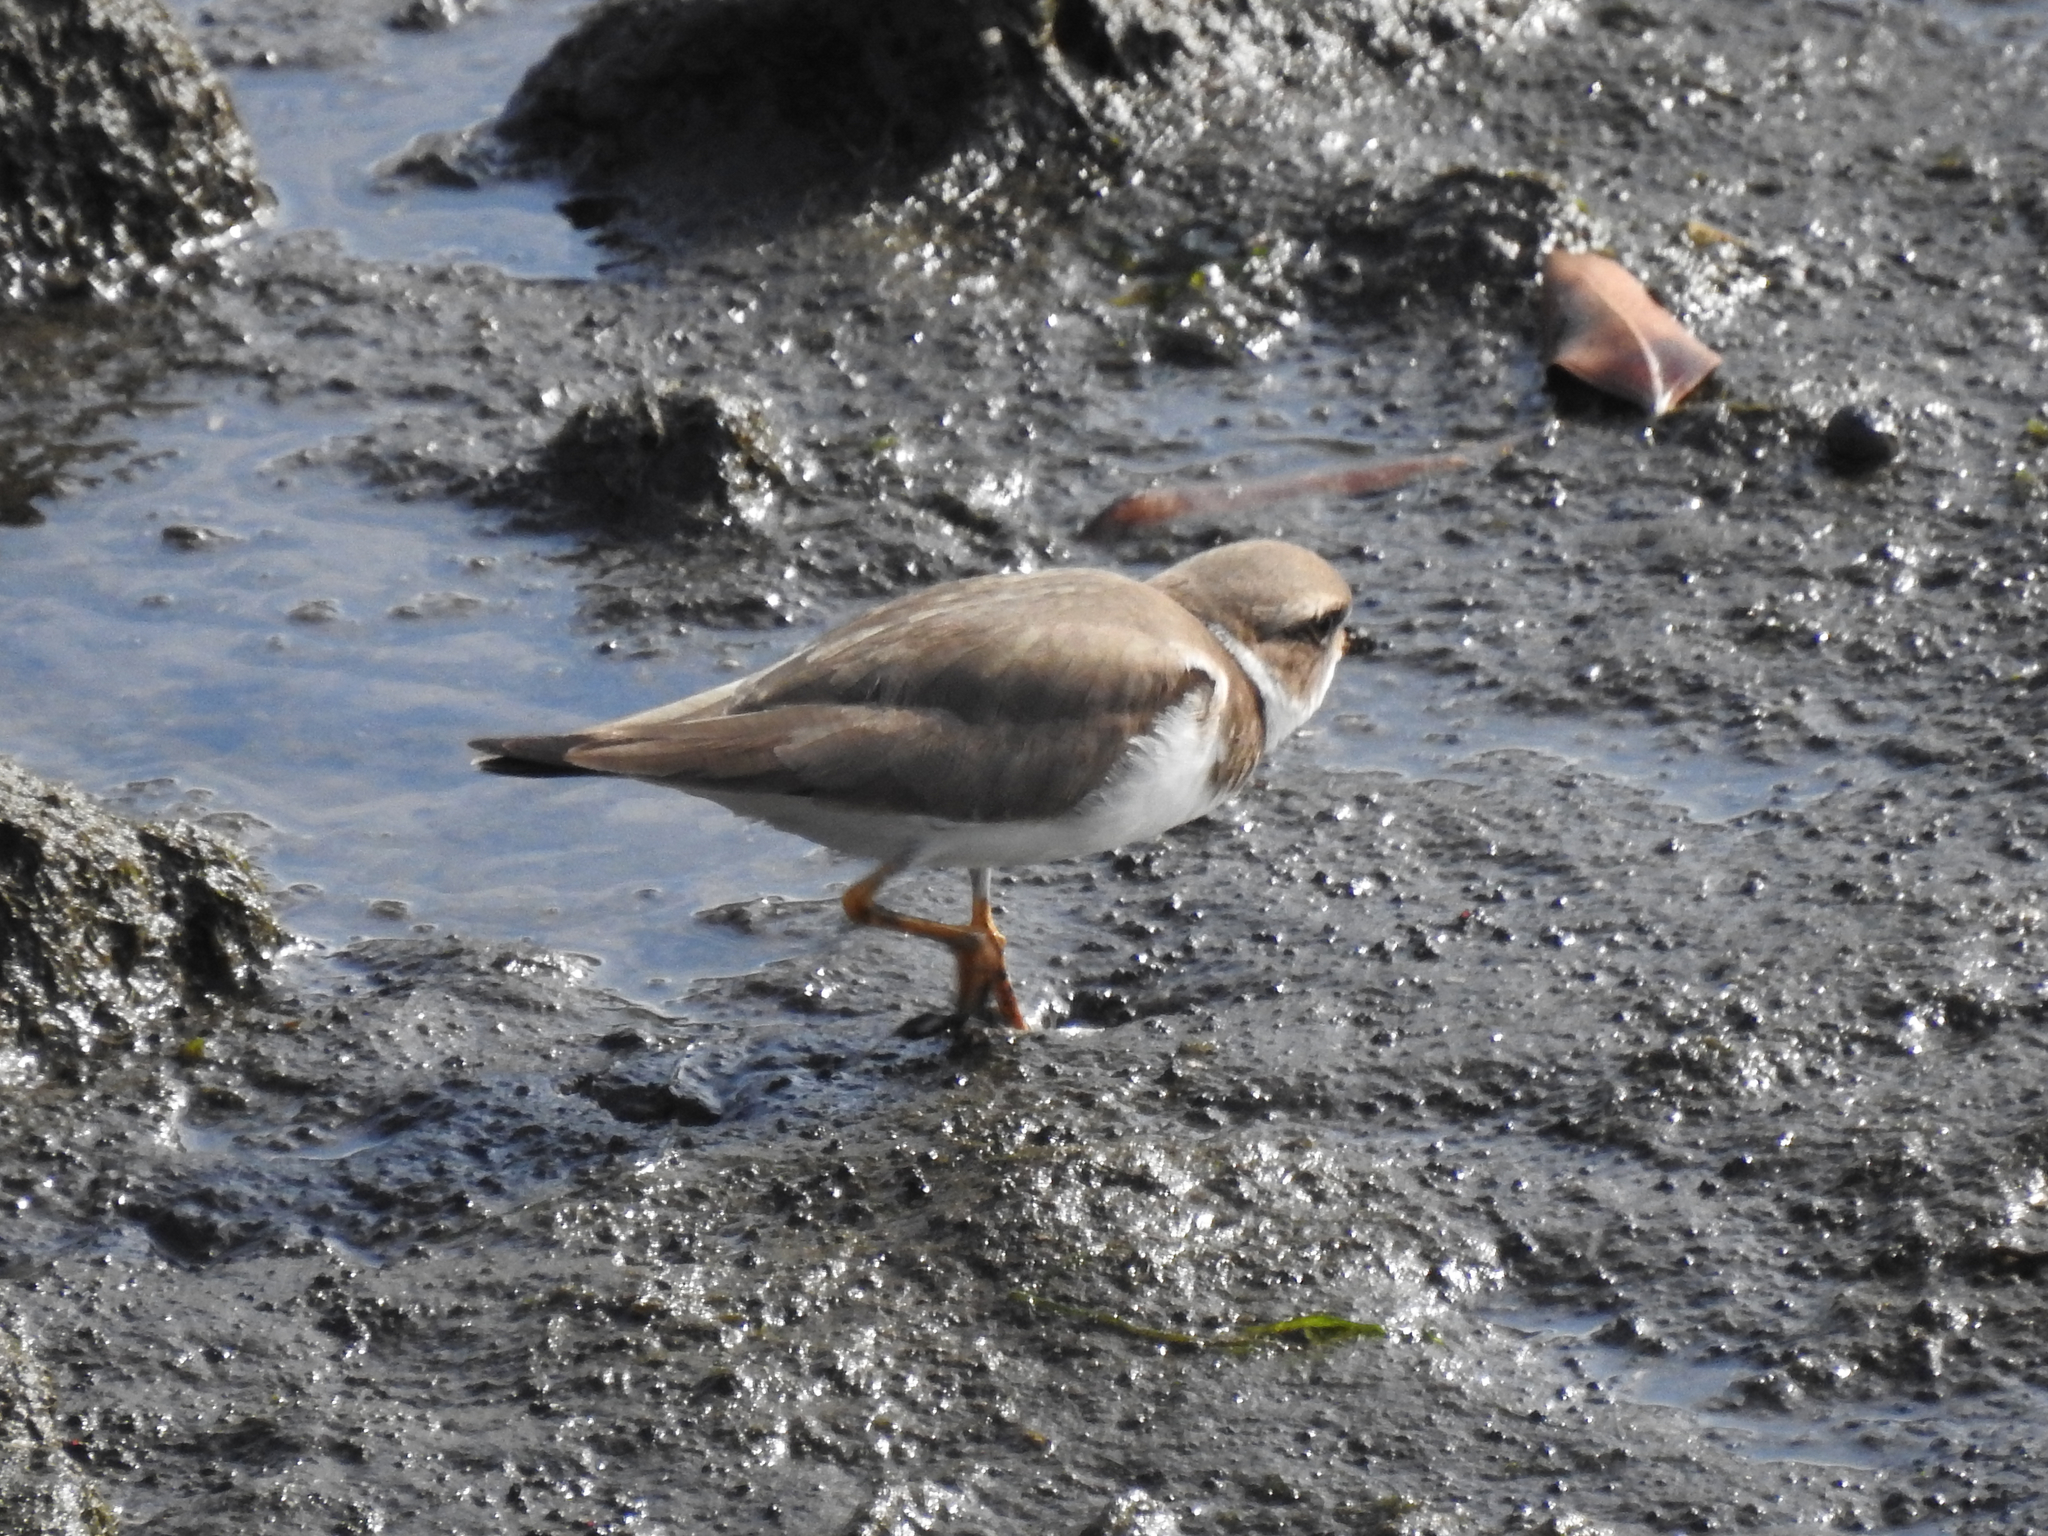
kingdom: Animalia
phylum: Chordata
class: Aves
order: Charadriiformes
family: Charadriidae
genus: Charadrius
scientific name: Charadrius semipalmatus
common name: Semipalmated plover
